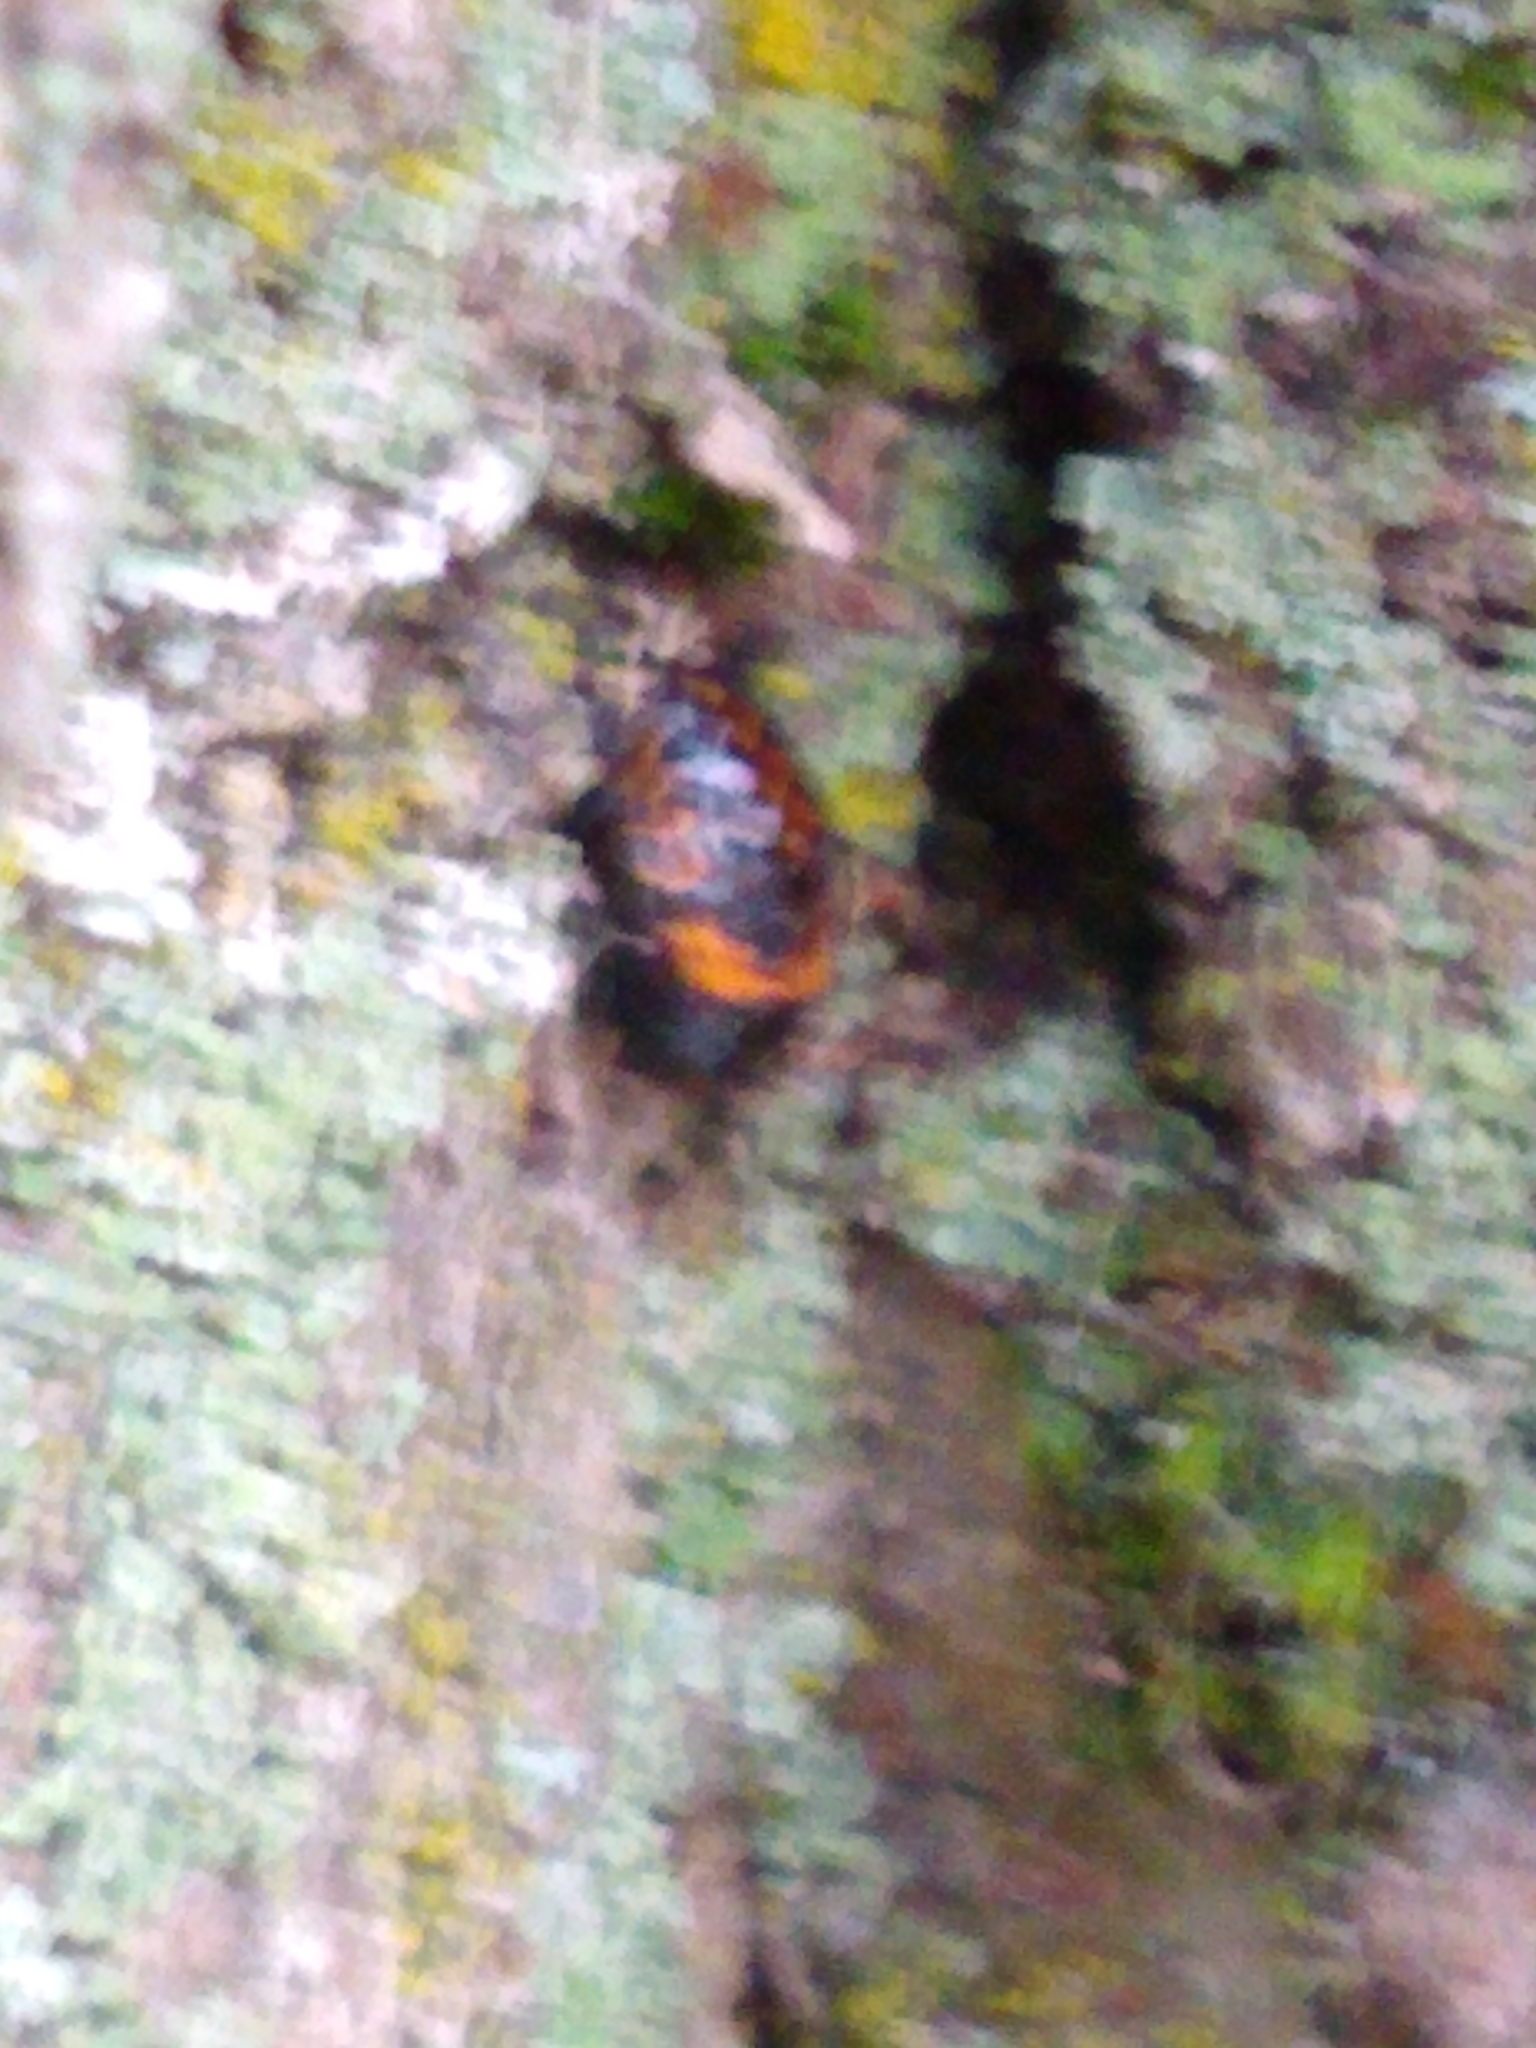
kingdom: Animalia
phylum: Arthropoda
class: Insecta
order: Coleoptera
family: Coccinellidae
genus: Harmonia
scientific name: Harmonia axyridis
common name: Harlequin ladybird
